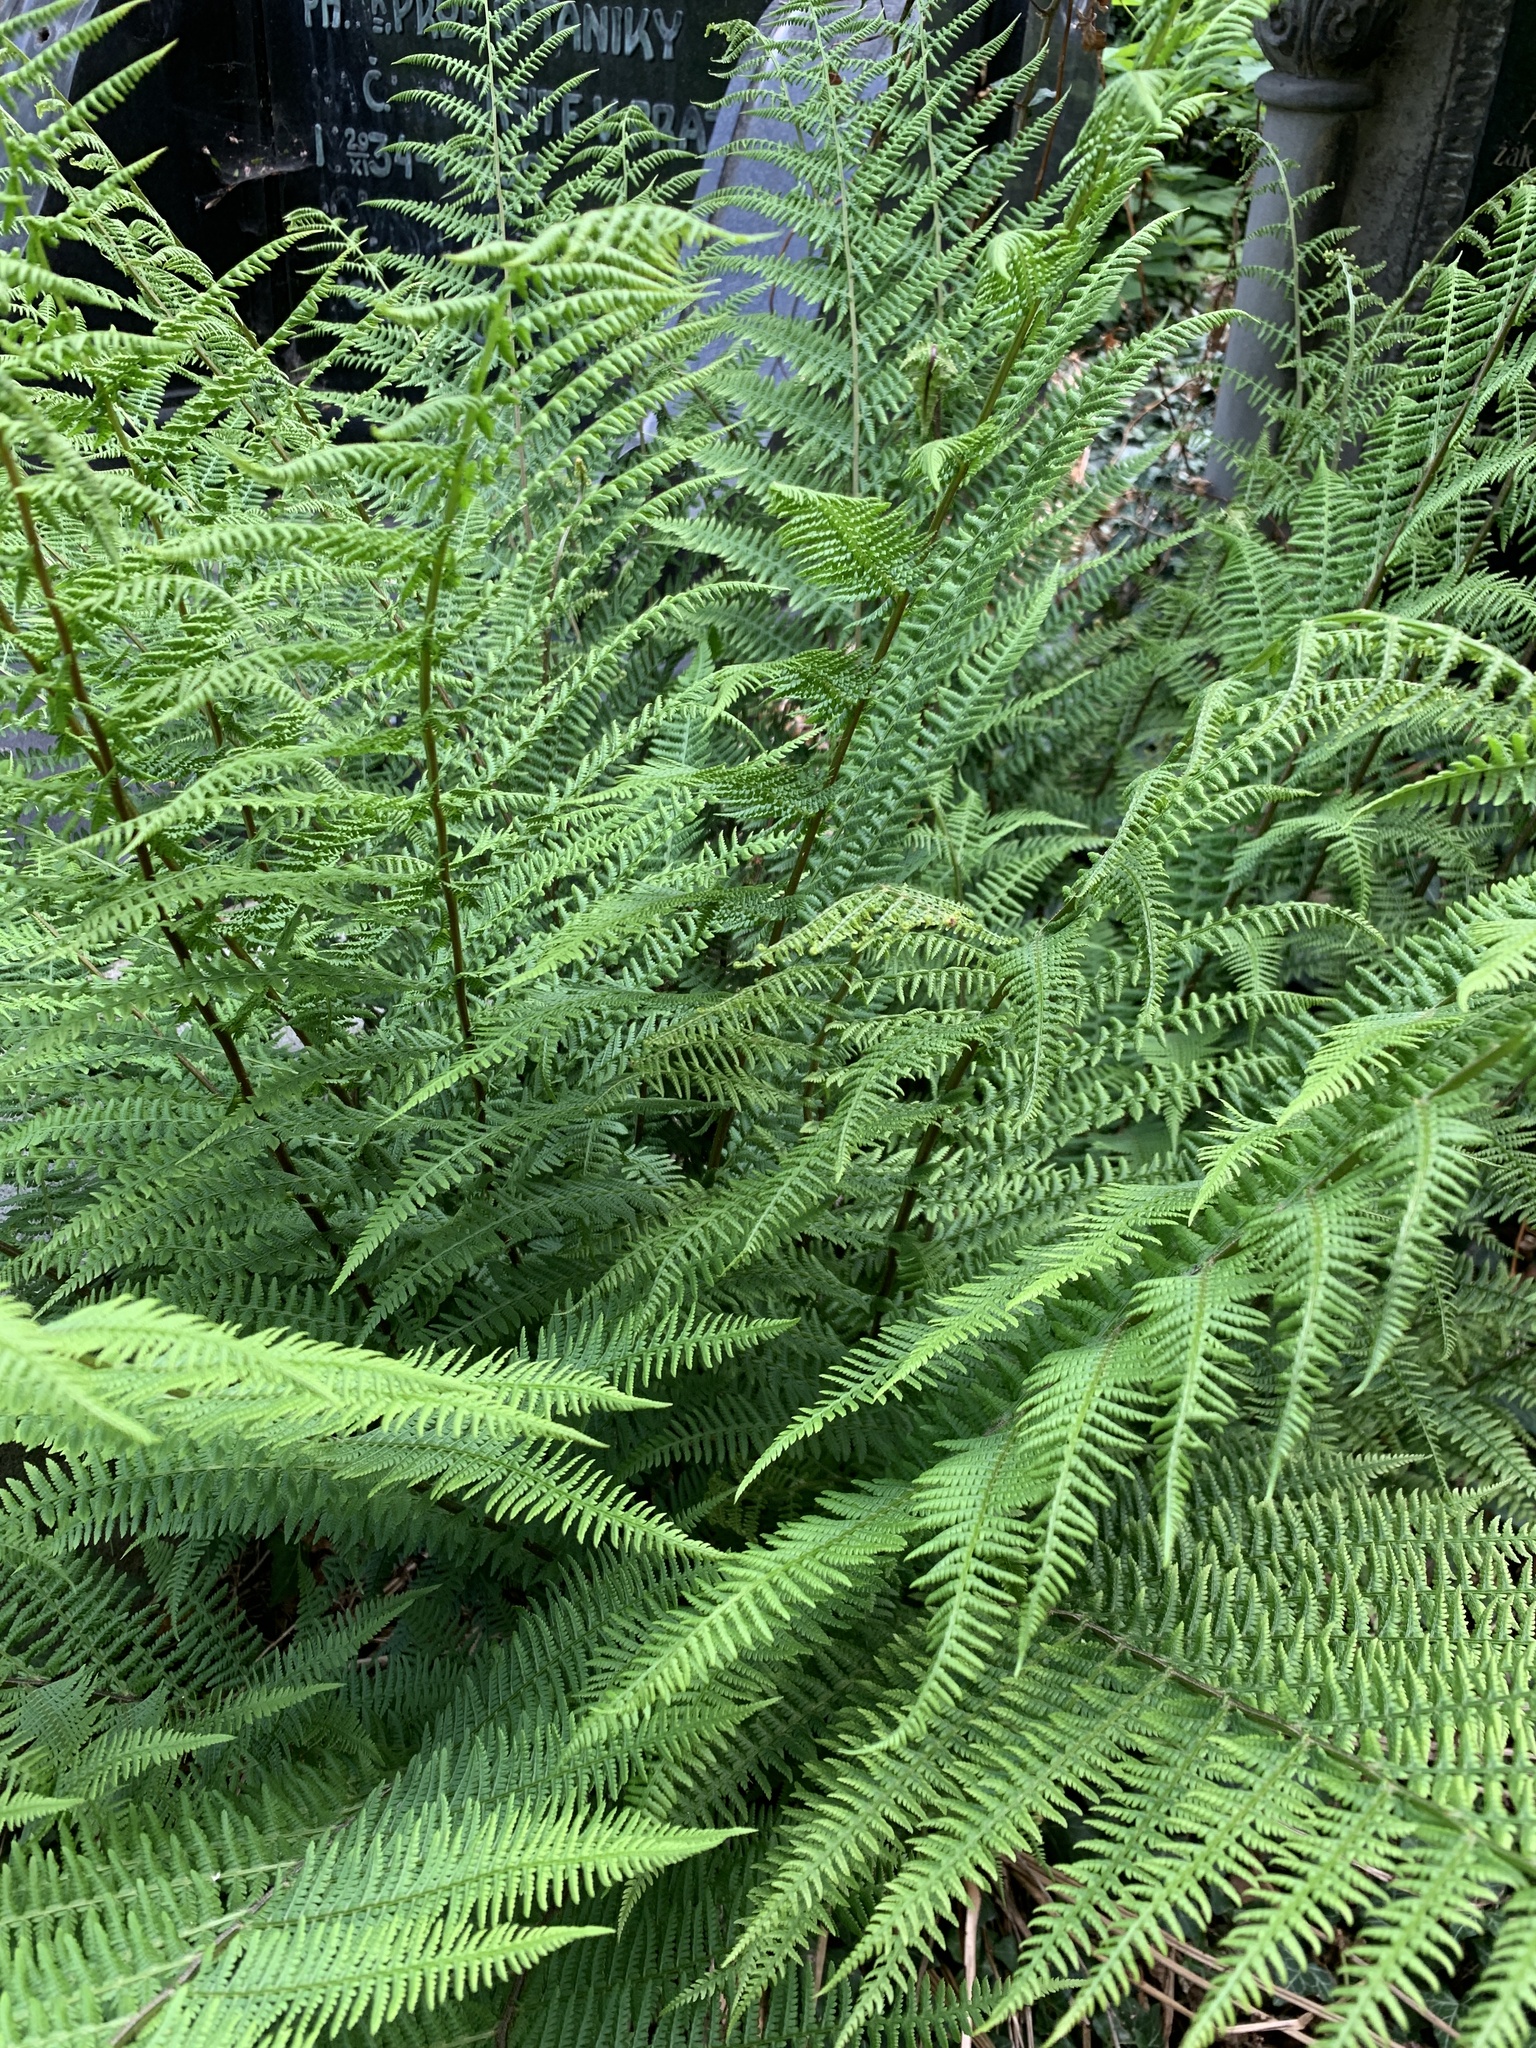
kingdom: Plantae
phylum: Tracheophyta
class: Polypodiopsida
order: Polypodiales
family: Athyriaceae
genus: Athyrium
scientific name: Athyrium filix-femina
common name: Lady fern
